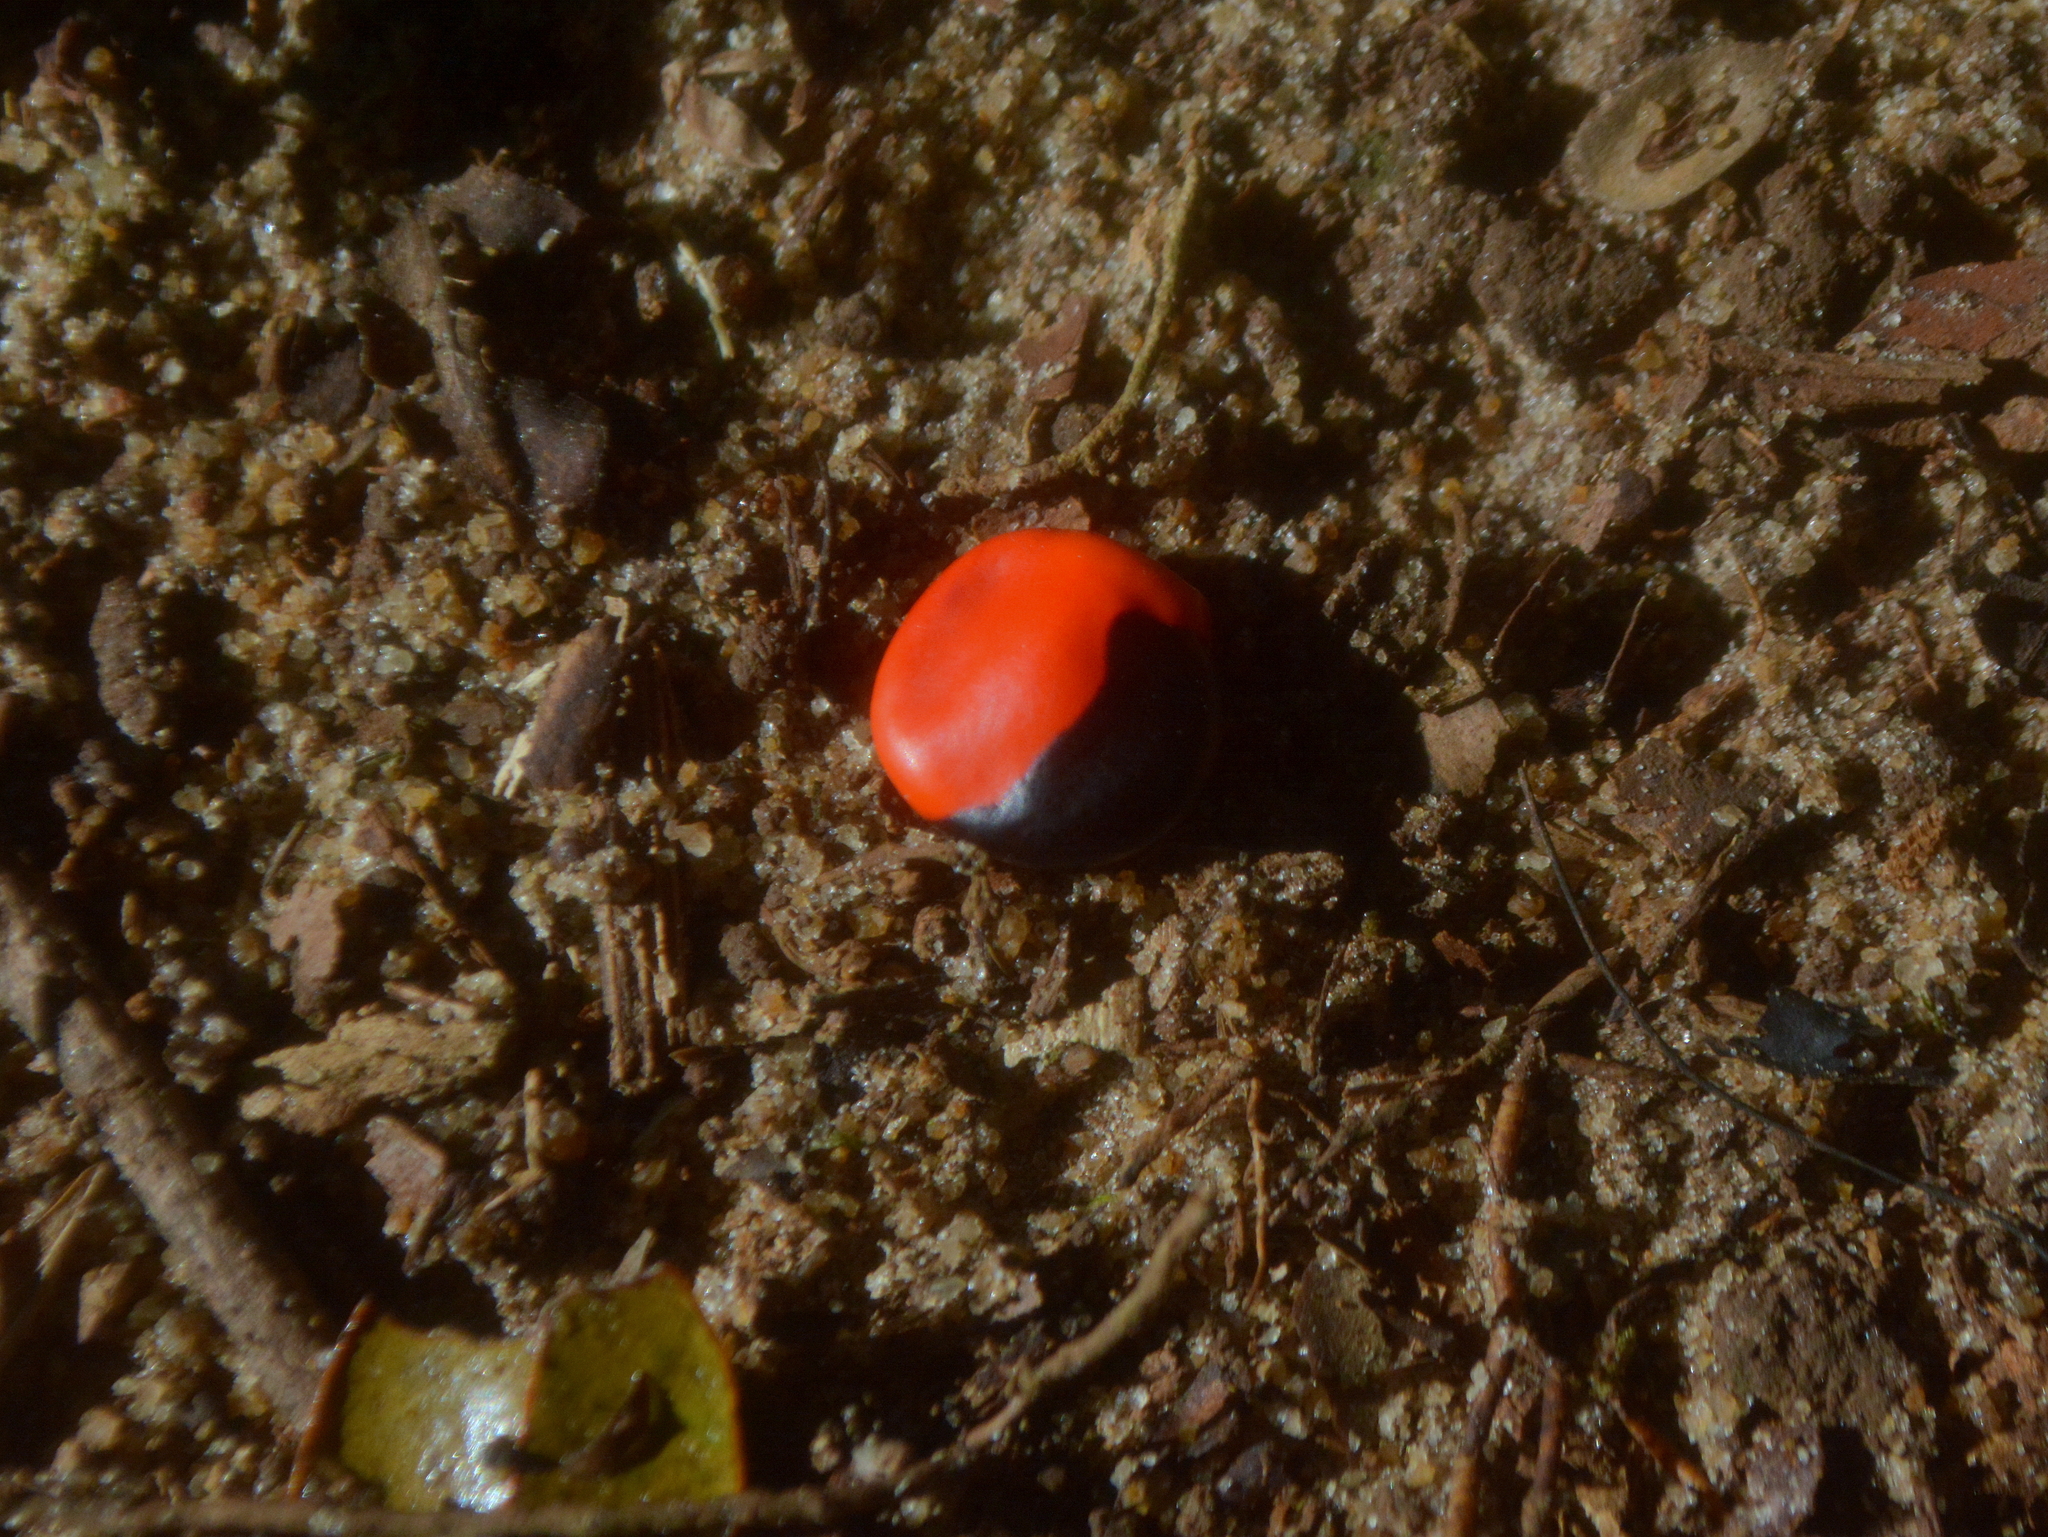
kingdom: Plantae
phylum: Tracheophyta
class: Magnoliopsida
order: Fabales
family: Fabaceae
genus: Ormosia
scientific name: Ormosia arborea
